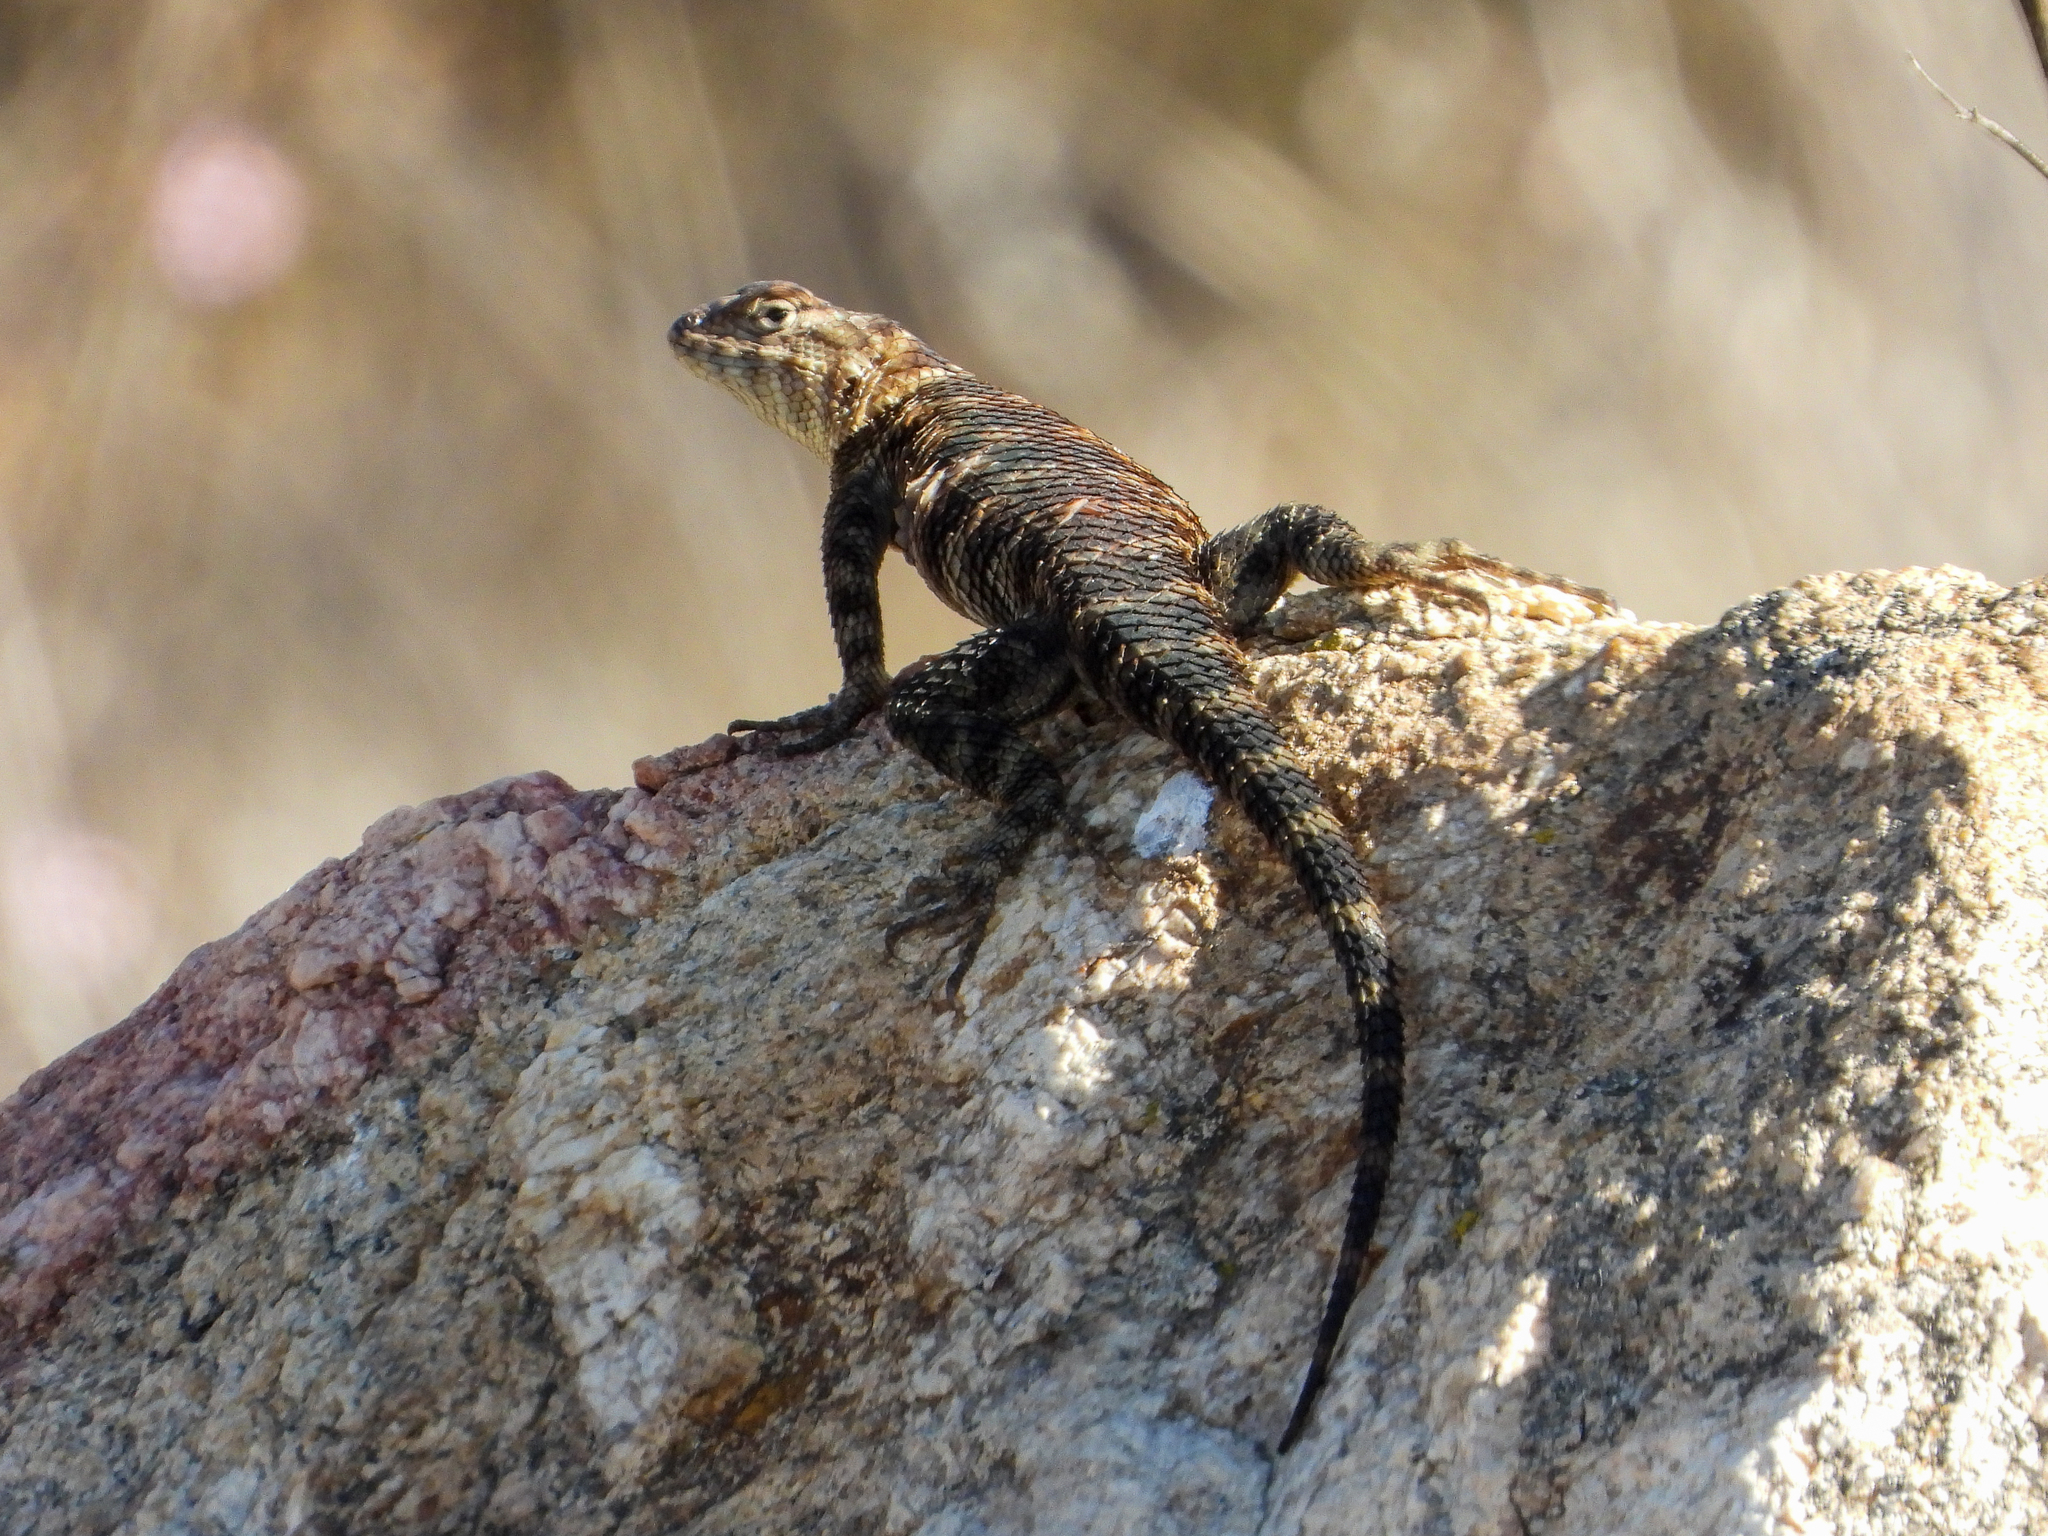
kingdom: Animalia
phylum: Chordata
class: Squamata
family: Phrynosomatidae
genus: Sceloporus
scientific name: Sceloporus orcutti
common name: Granite spiny lizard
